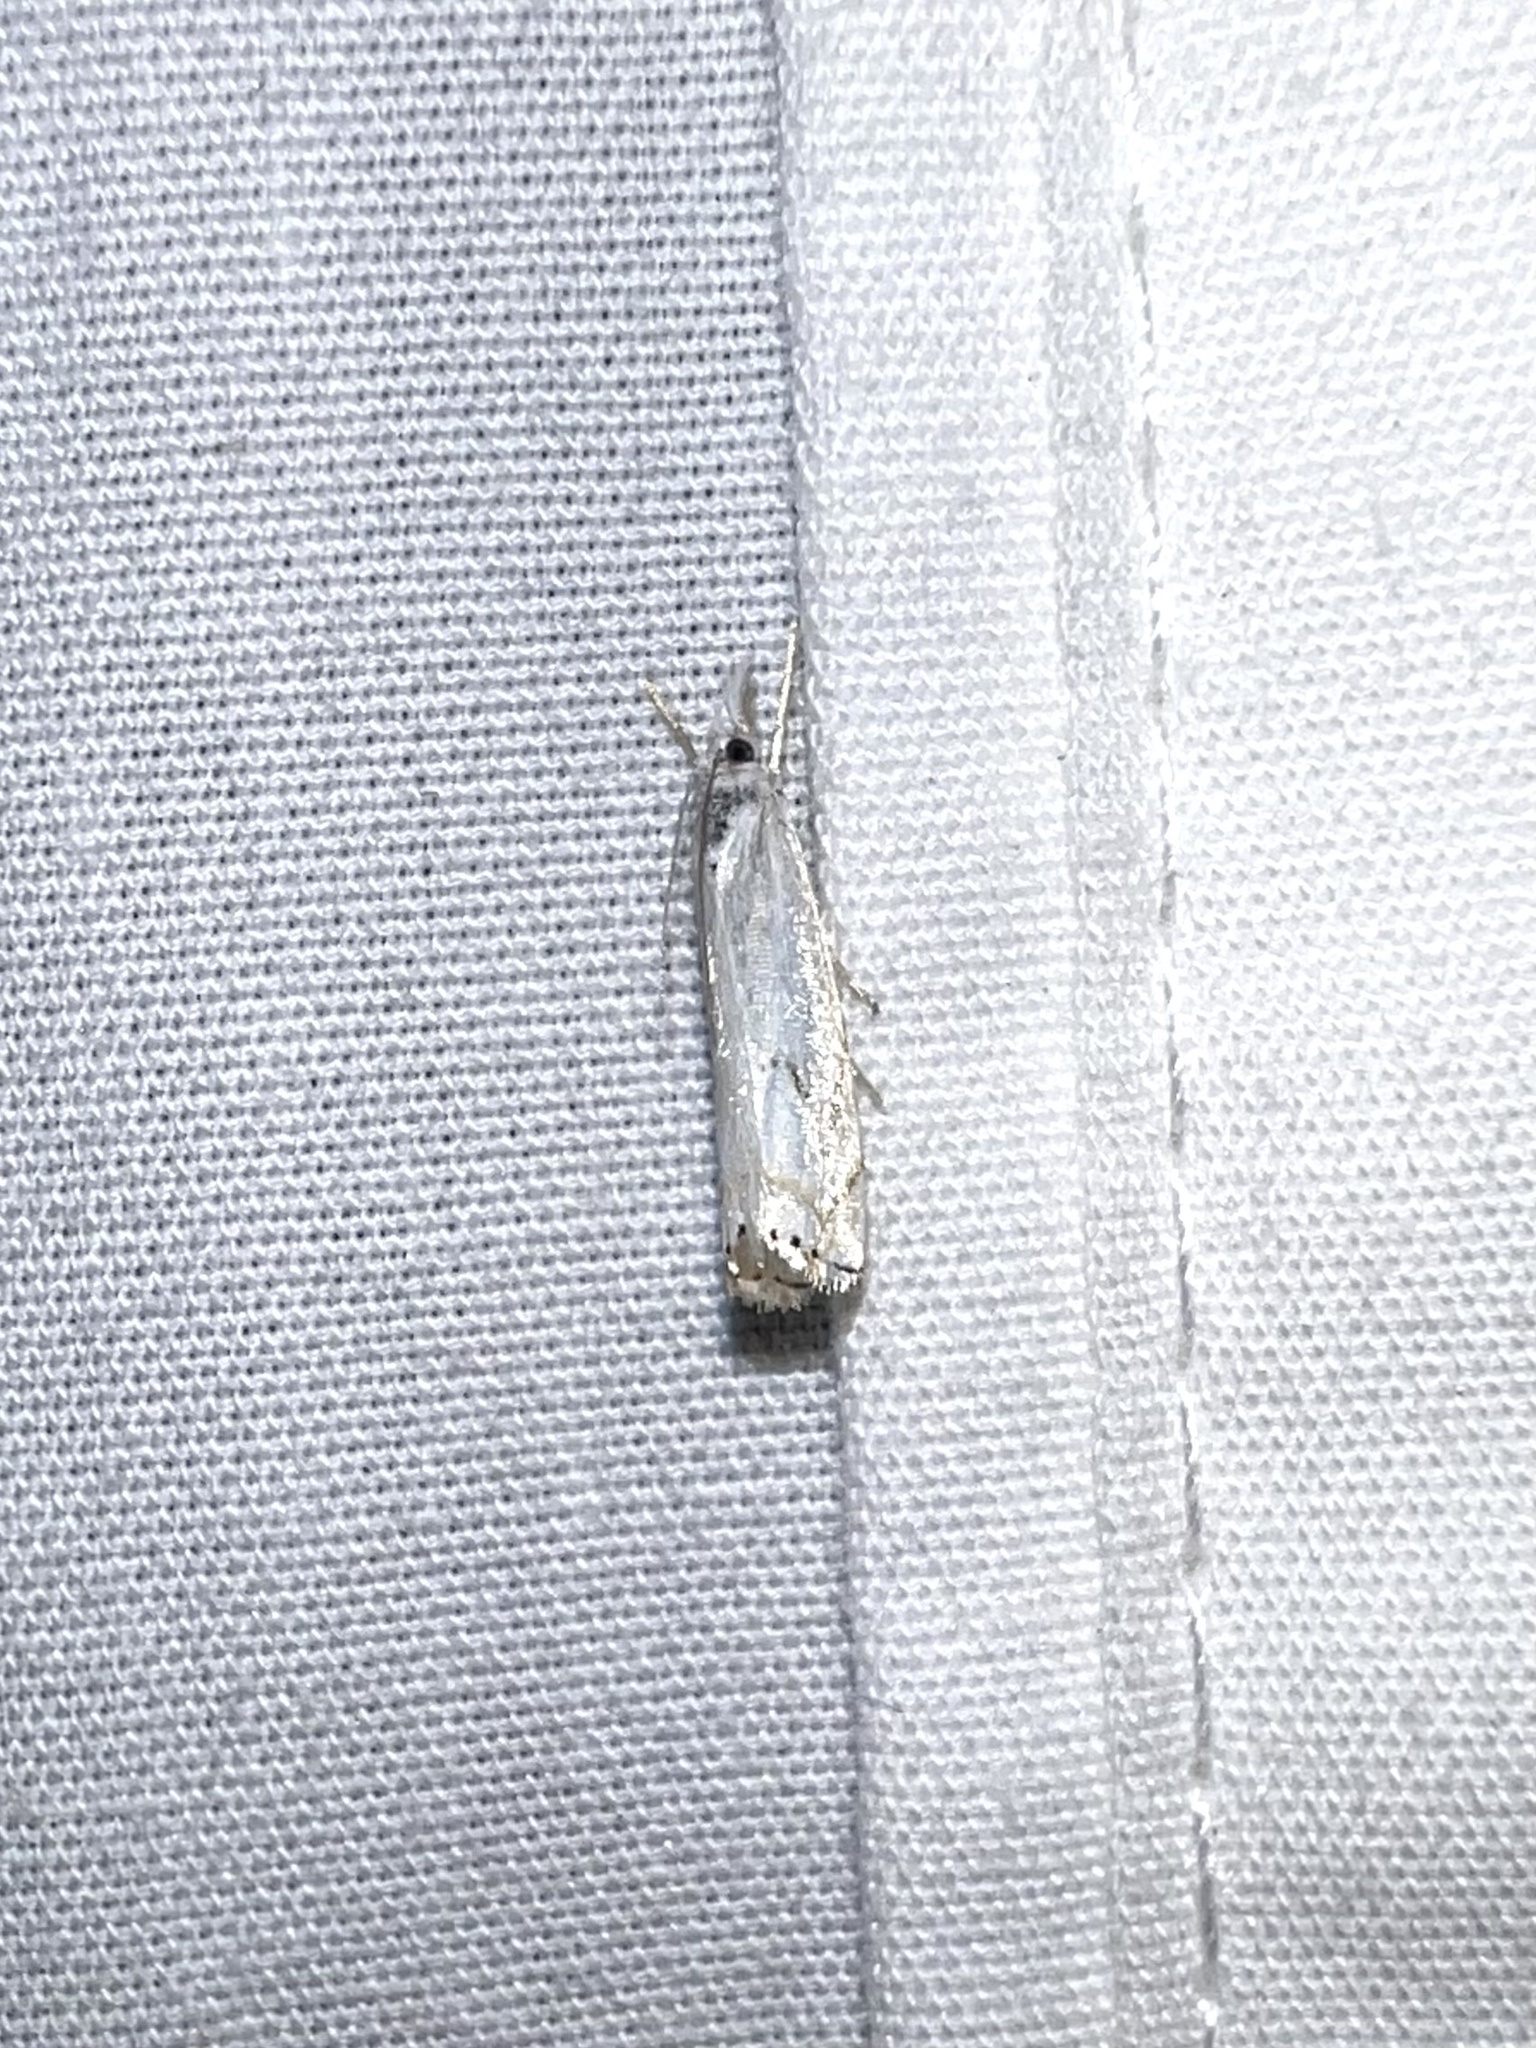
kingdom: Animalia
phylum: Arthropoda
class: Insecta
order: Lepidoptera
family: Crambidae
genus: Crambus
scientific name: Crambus albellus
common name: Small white grass-veneer
